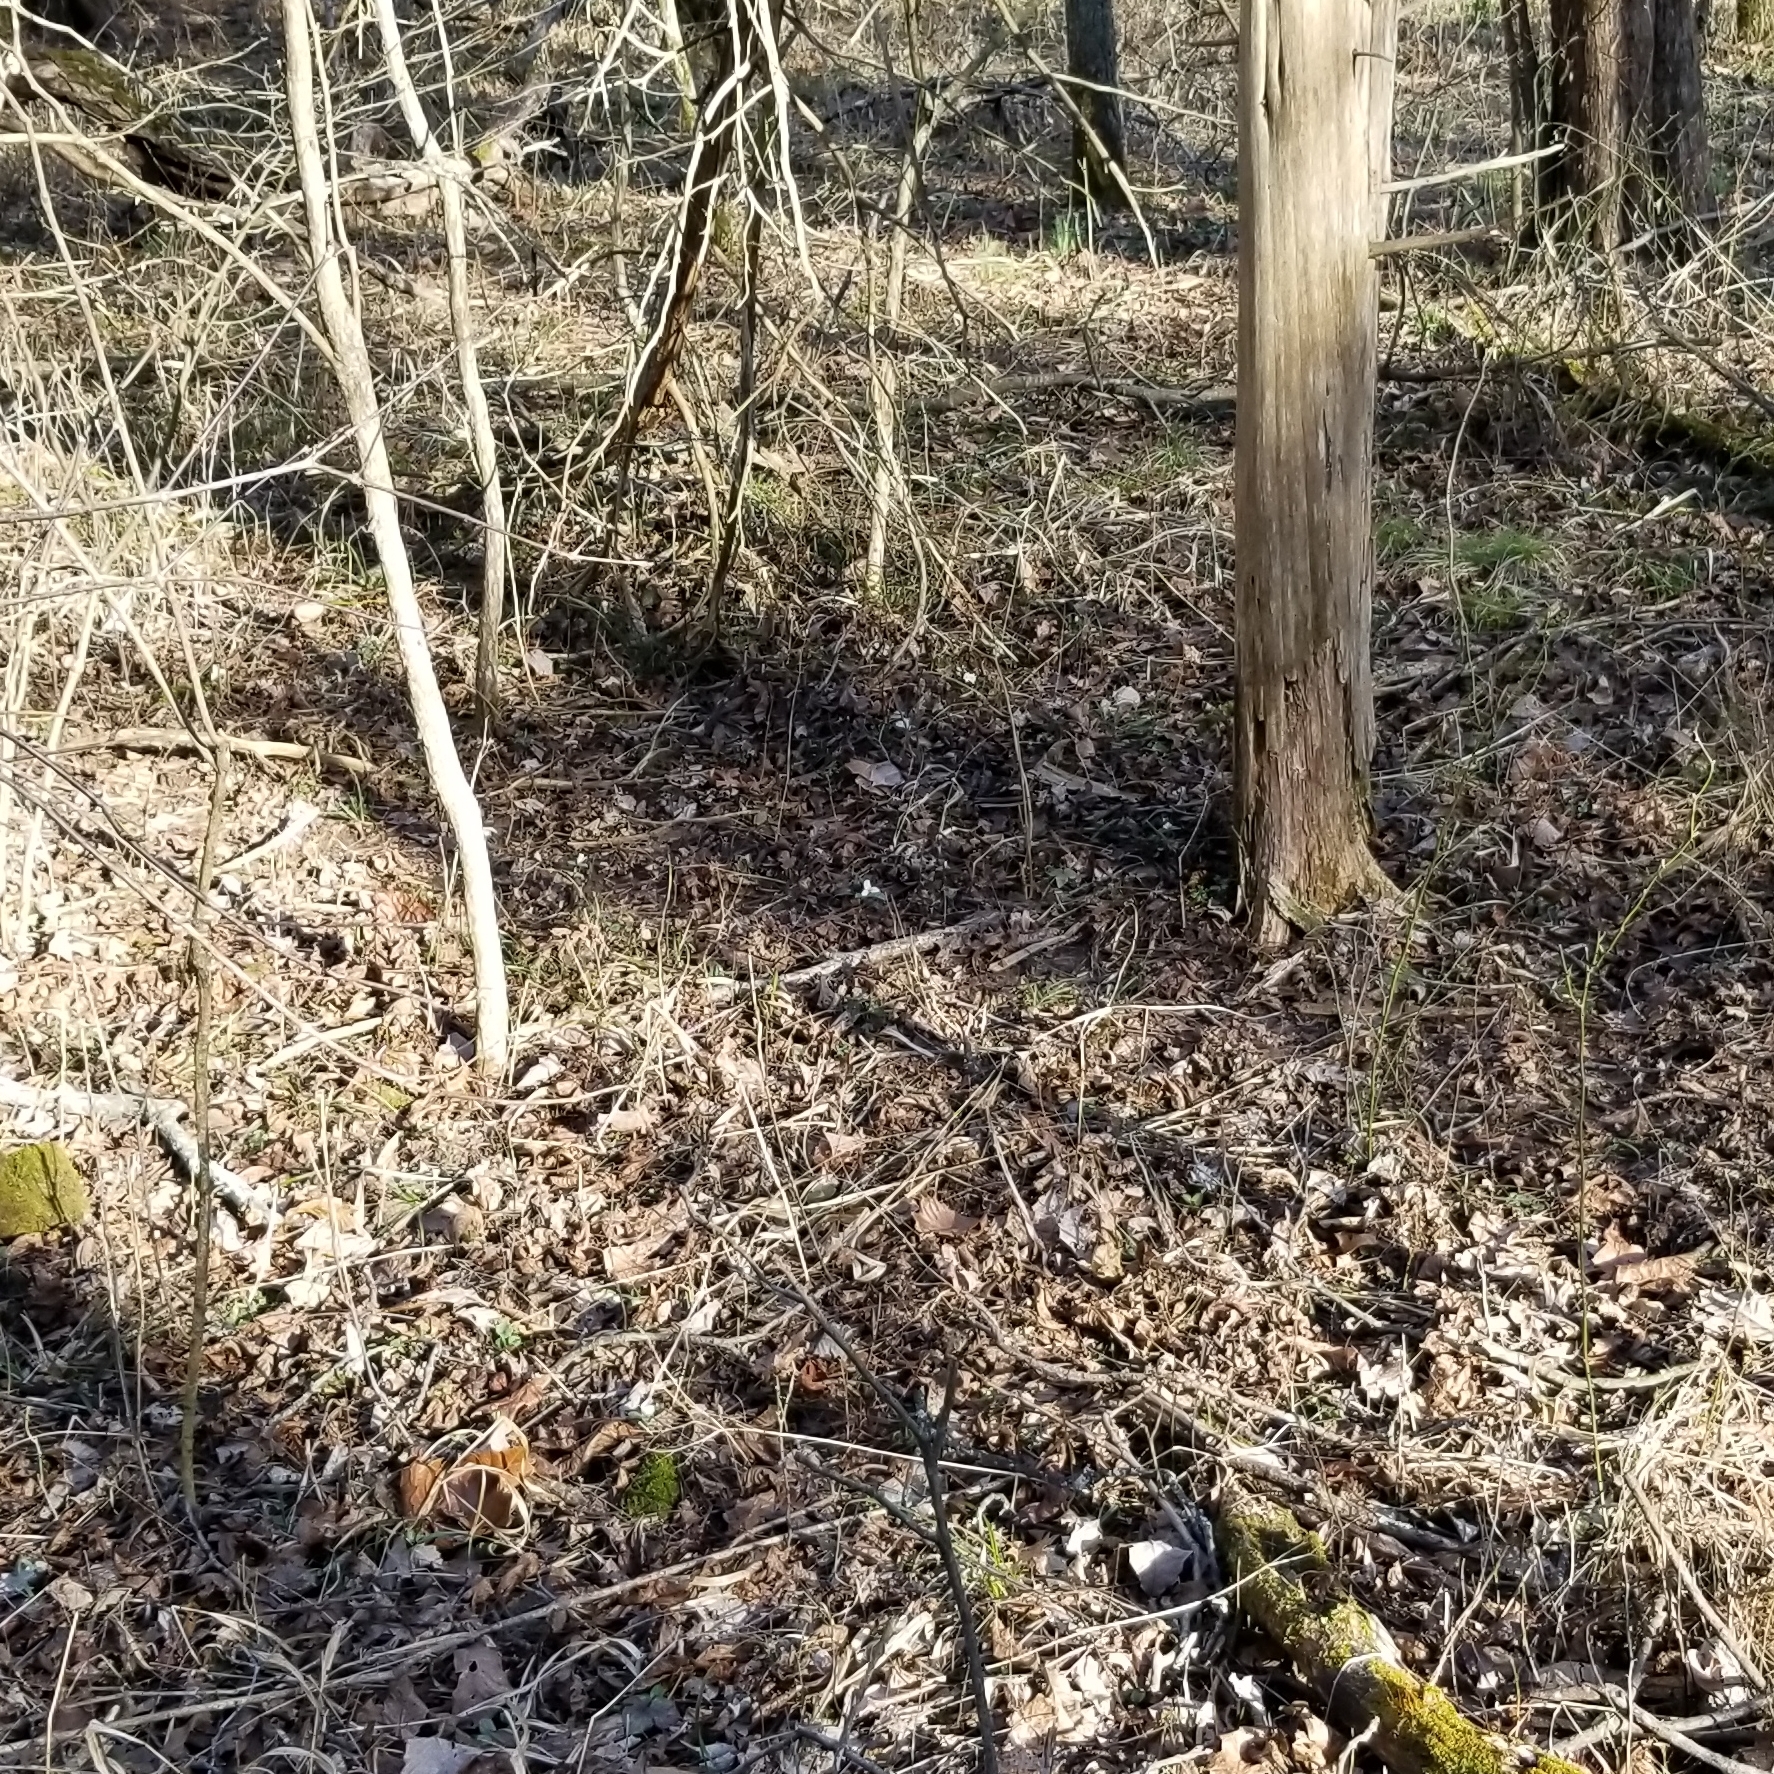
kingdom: Plantae
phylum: Tracheophyta
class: Liliopsida
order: Liliales
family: Melanthiaceae
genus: Trillium
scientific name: Trillium nivale
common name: Dwarf white trillium
